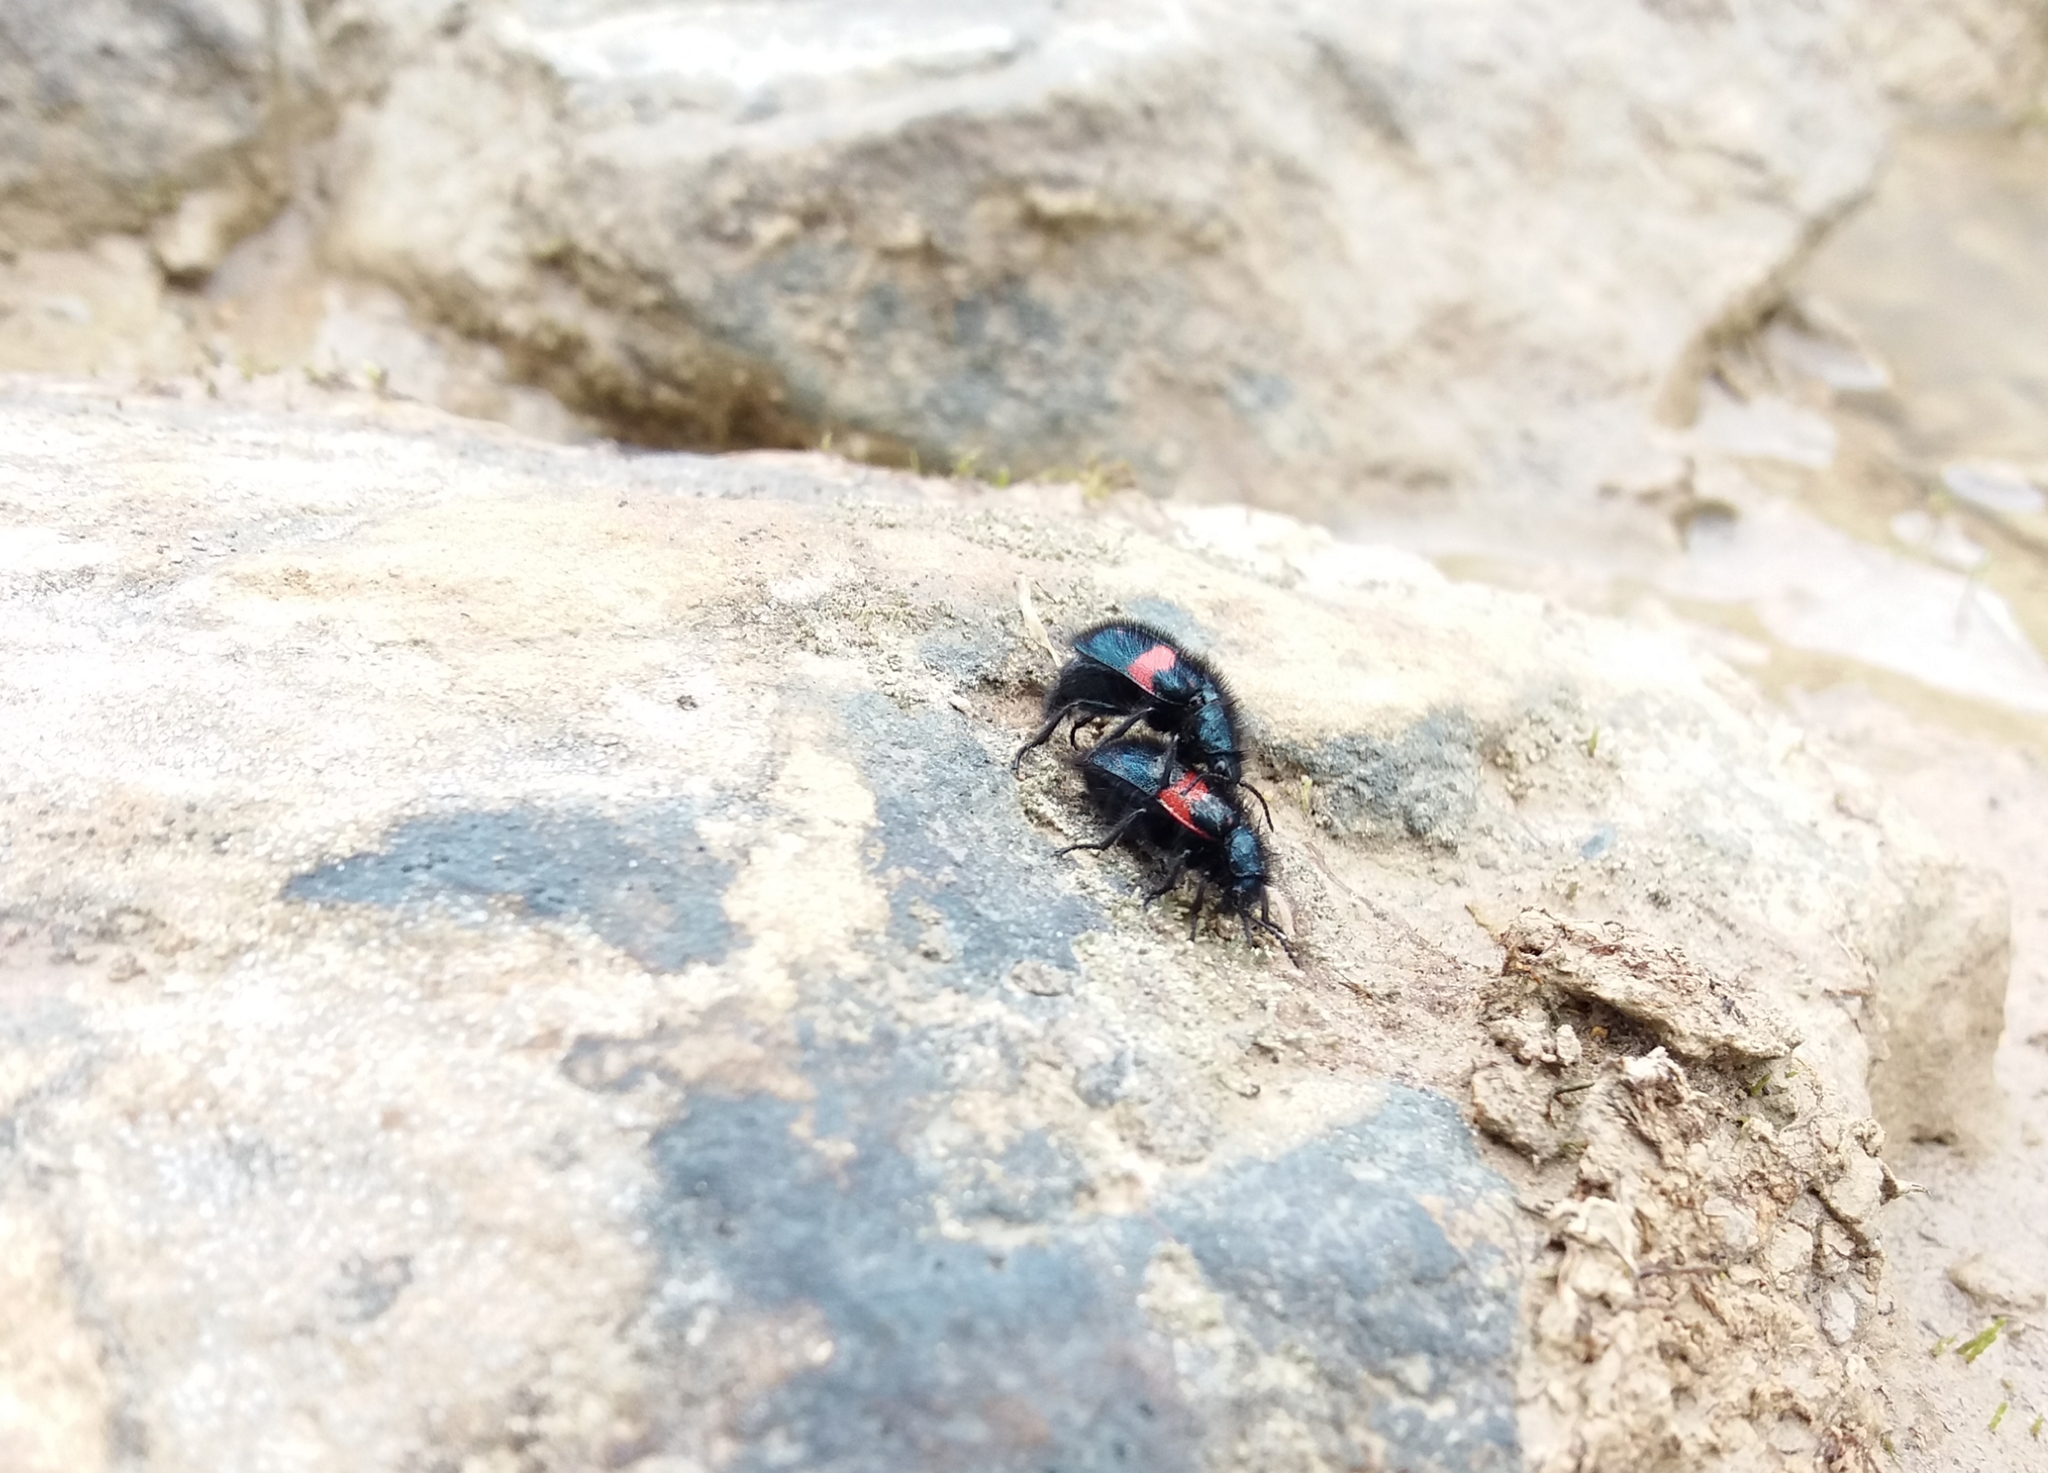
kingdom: Animalia
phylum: Arthropoda
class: Insecta
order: Coleoptera
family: Melyridae
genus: Astylus
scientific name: Astylus
